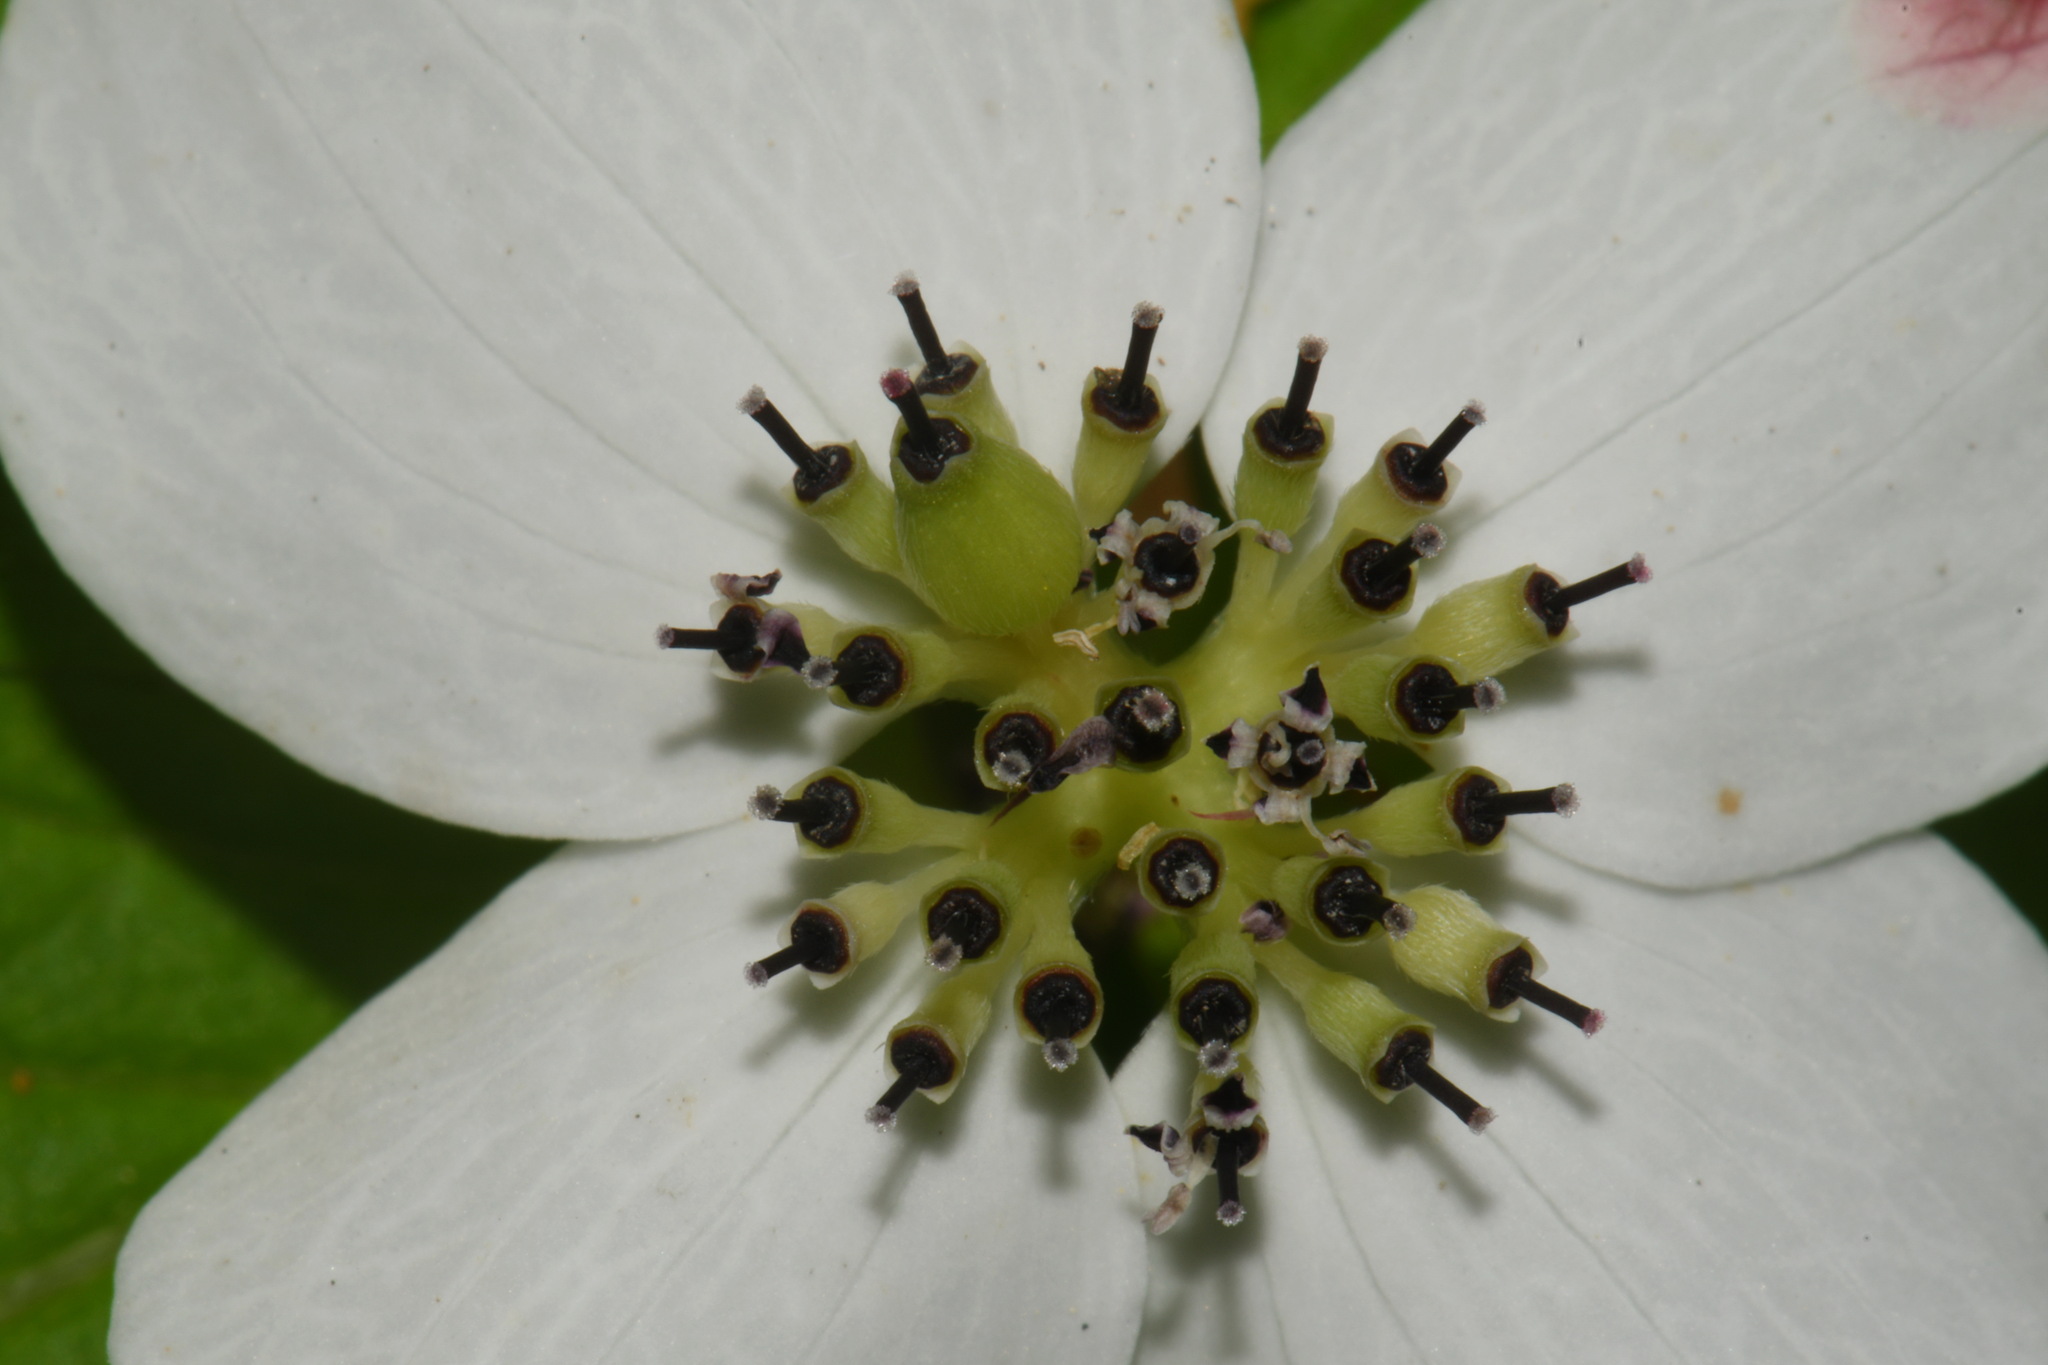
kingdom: Plantae
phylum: Tracheophyta
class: Magnoliopsida
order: Cornales
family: Cornaceae
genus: Cornus
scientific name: Cornus unalaschkensis
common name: Alaska bunchberry
